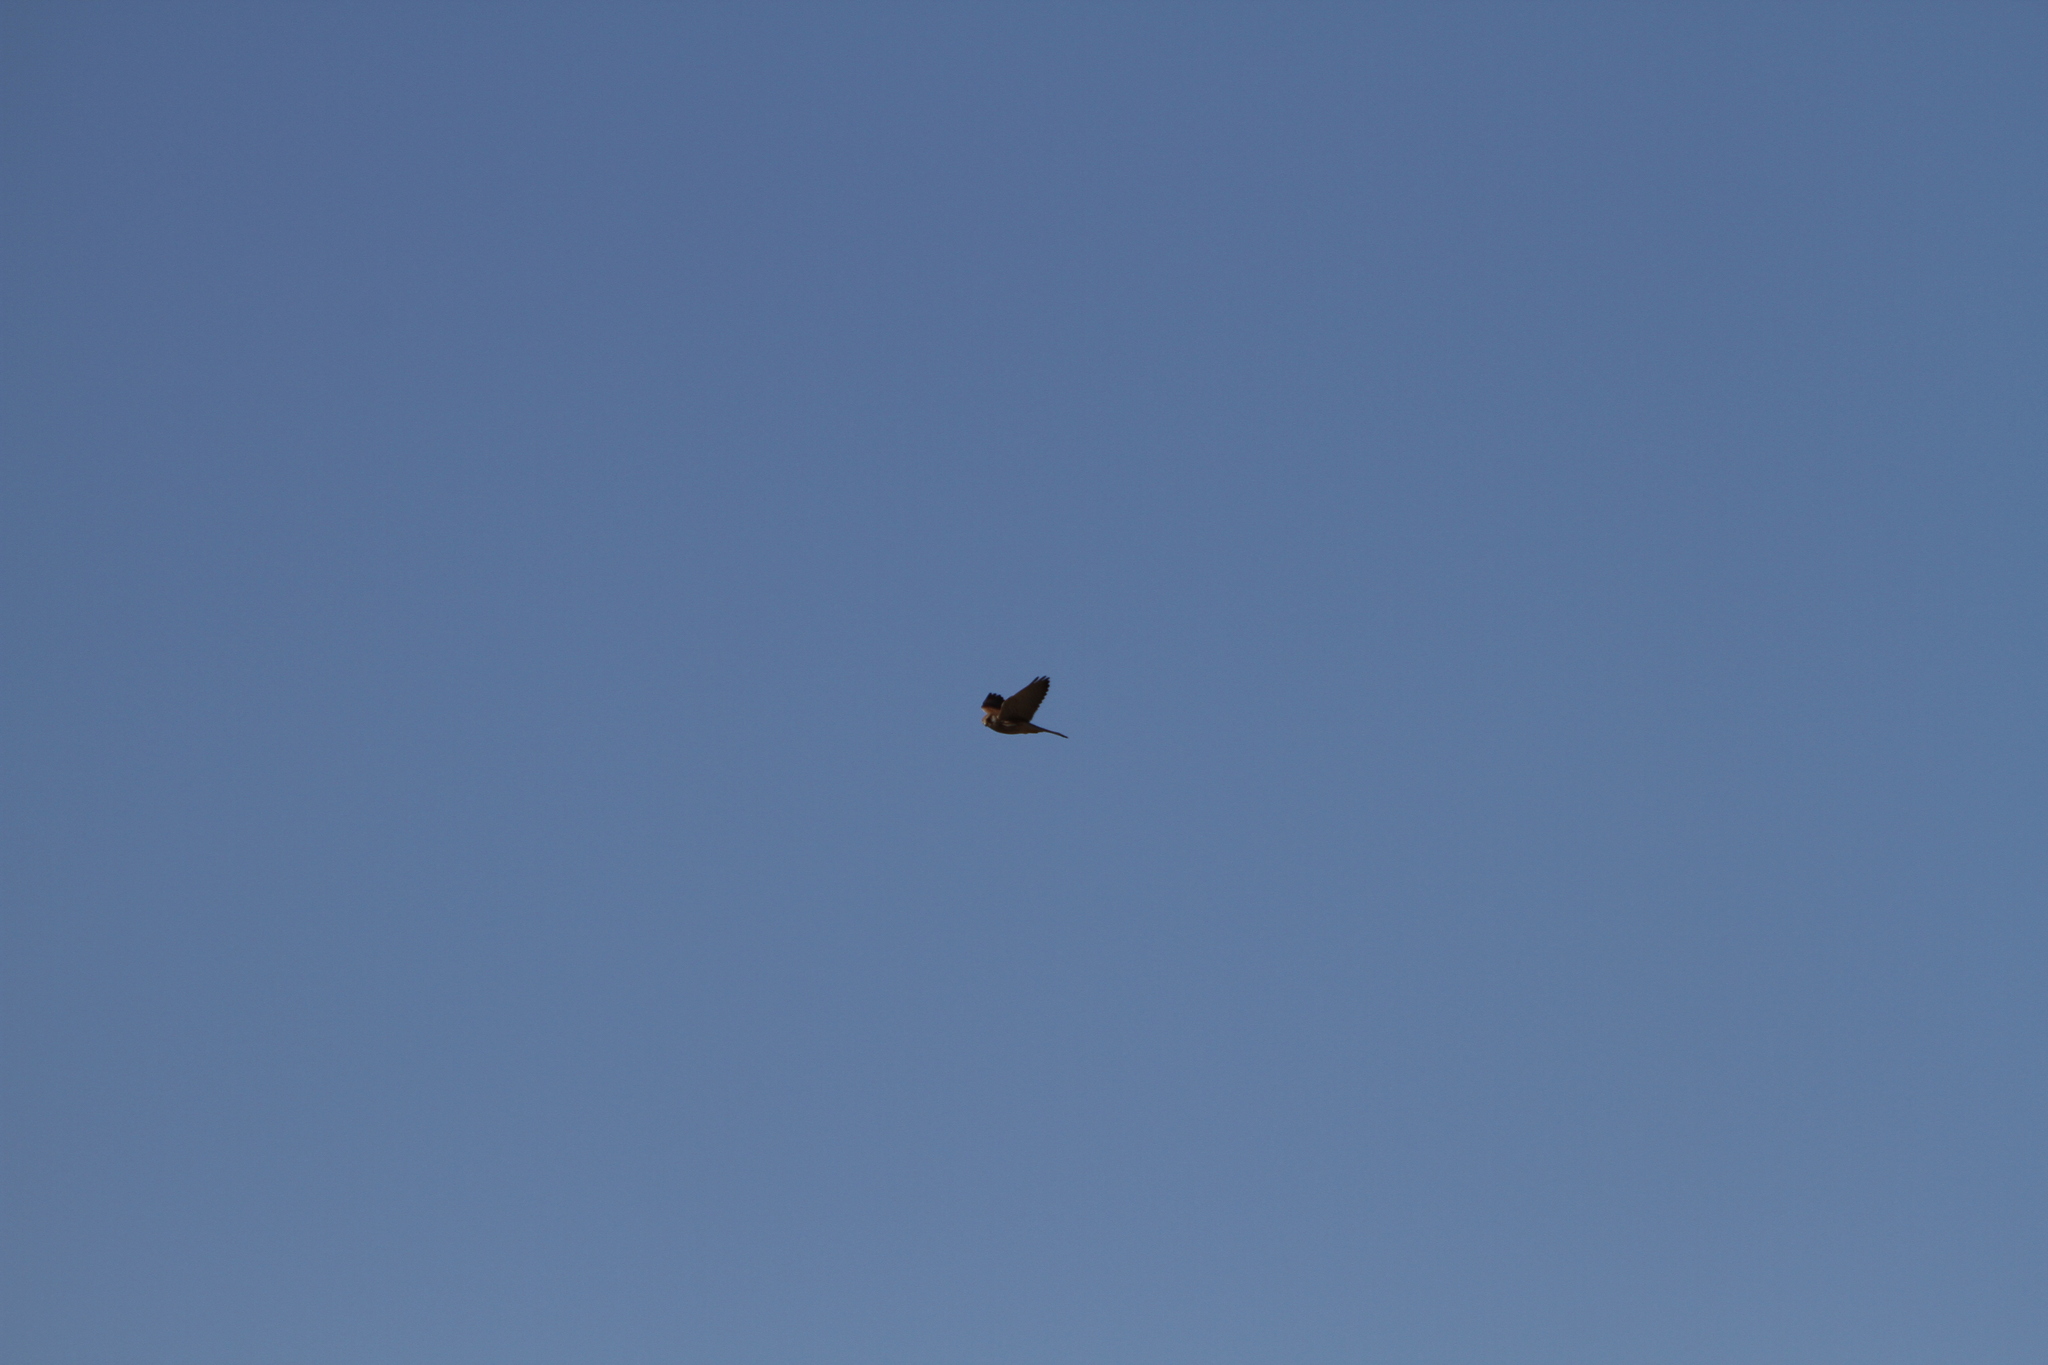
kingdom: Animalia
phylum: Chordata
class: Aves
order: Falconiformes
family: Falconidae
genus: Falco
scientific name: Falco tinnunculus
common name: Common kestrel
